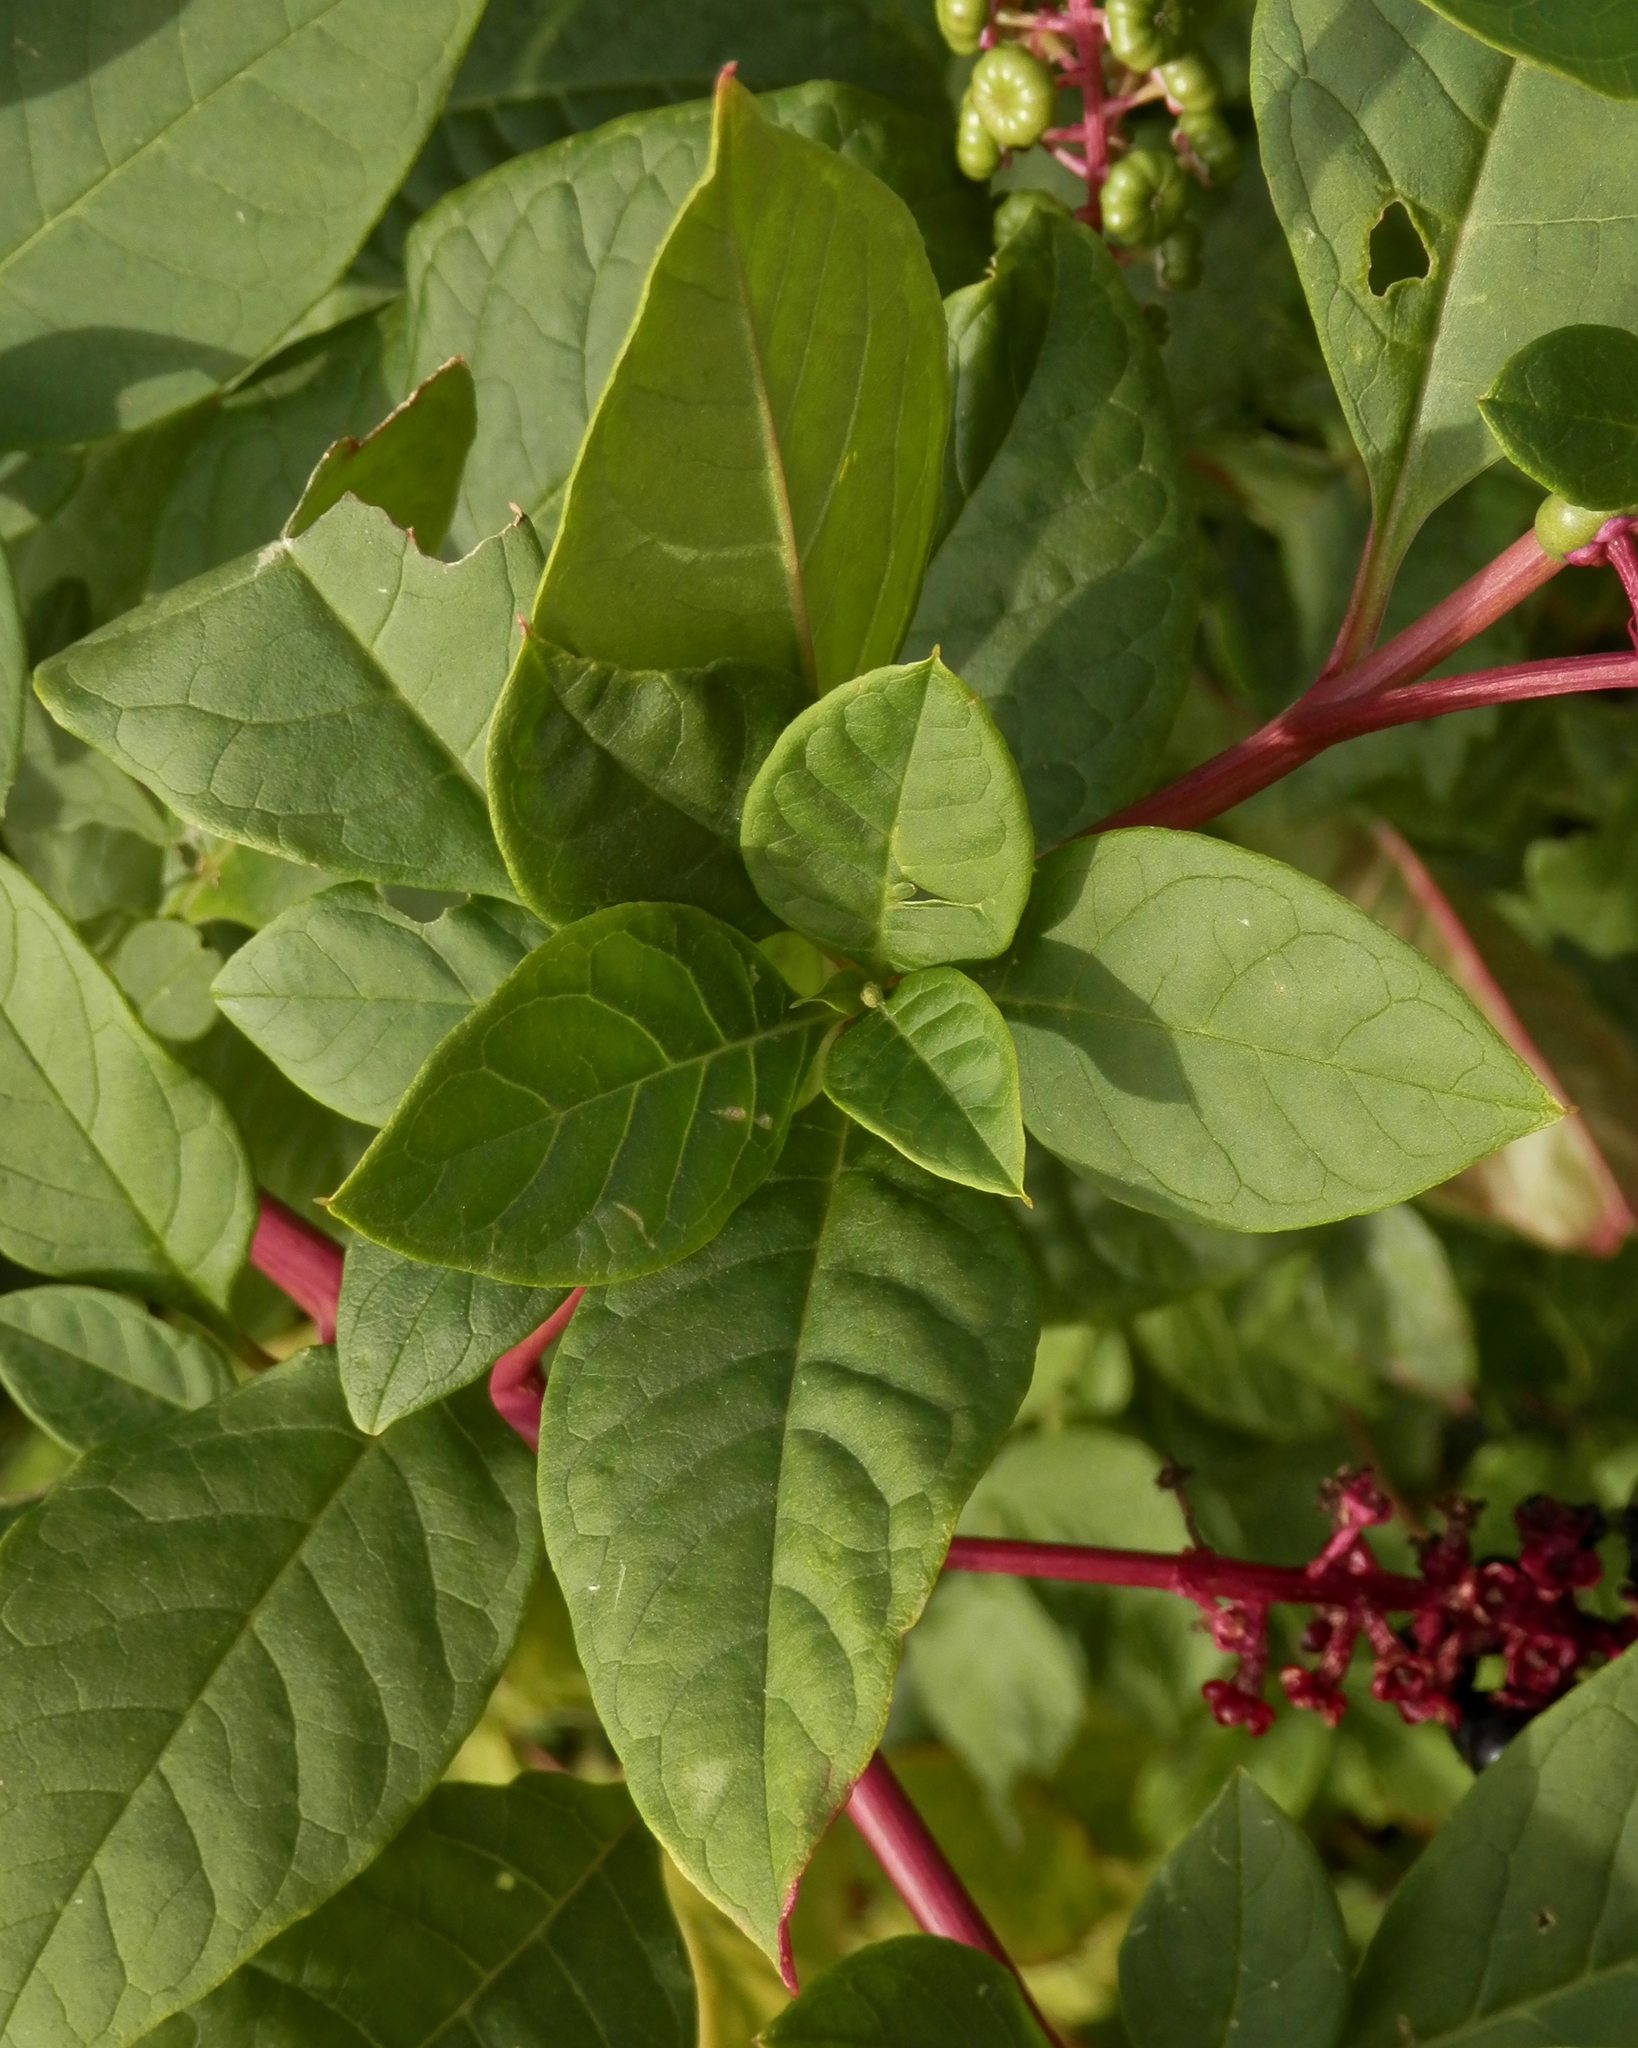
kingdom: Plantae
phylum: Tracheophyta
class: Magnoliopsida
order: Caryophyllales
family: Phytolaccaceae
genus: Phytolacca
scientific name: Phytolacca americana
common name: American pokeweed
